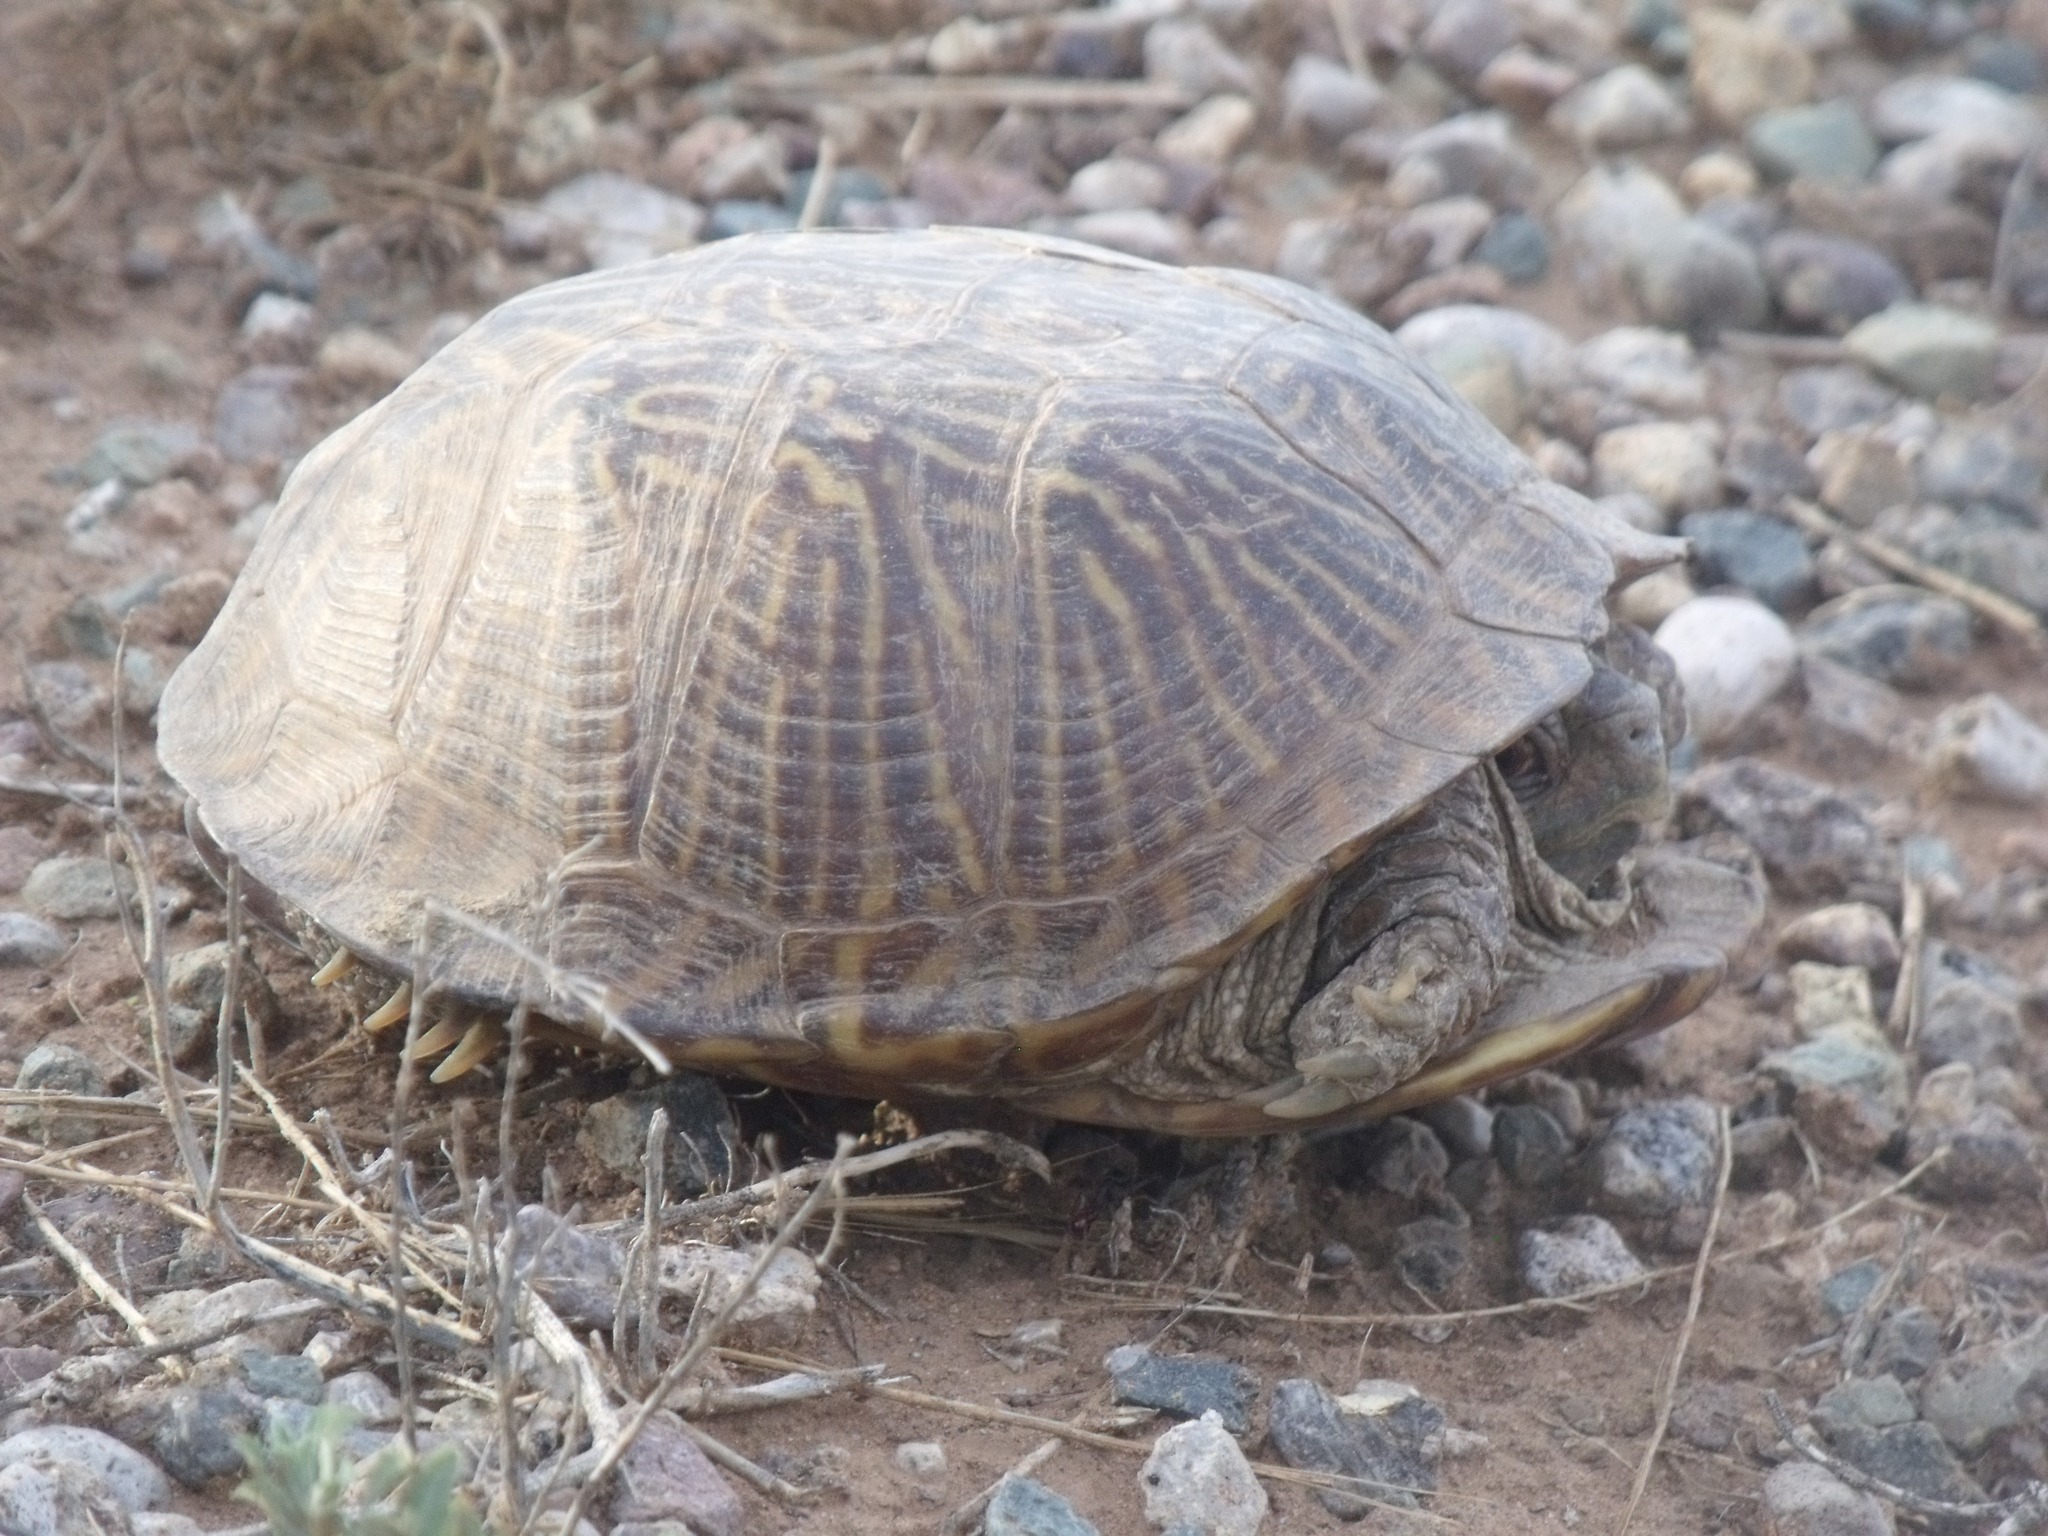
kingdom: Animalia
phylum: Chordata
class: Testudines
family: Emydidae
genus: Terrapene
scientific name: Terrapene ornata
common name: Western box turtle
